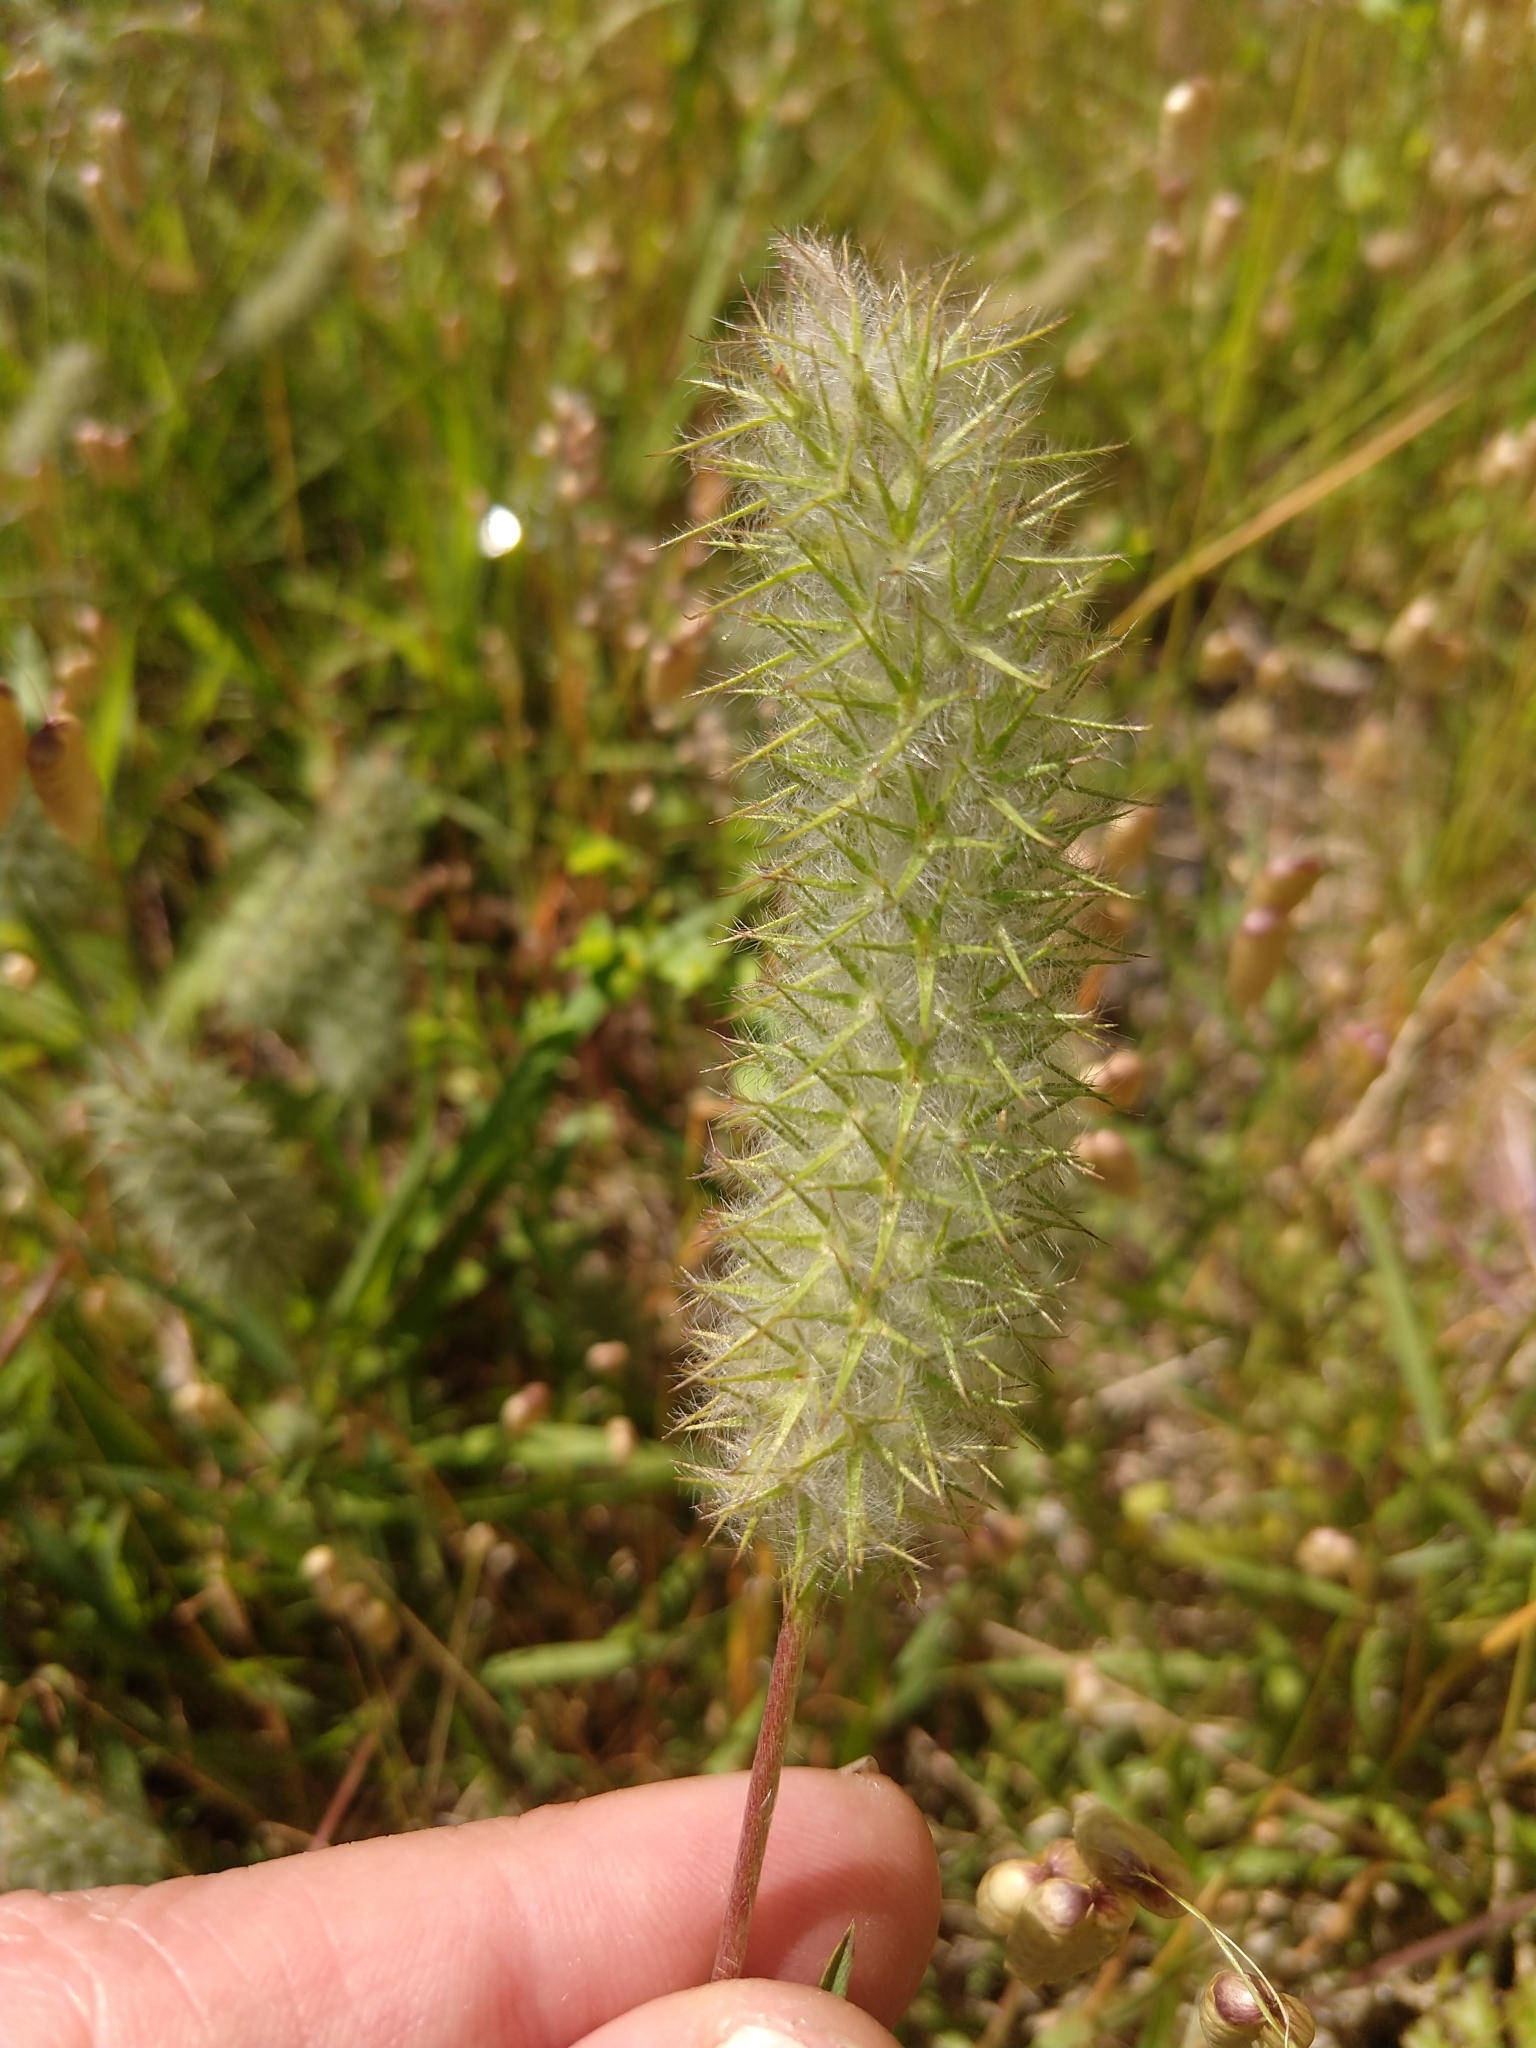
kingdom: Plantae
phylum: Tracheophyta
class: Magnoliopsida
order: Fabales
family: Fabaceae
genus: Trifolium
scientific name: Trifolium angustifolium
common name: Narrow clover
